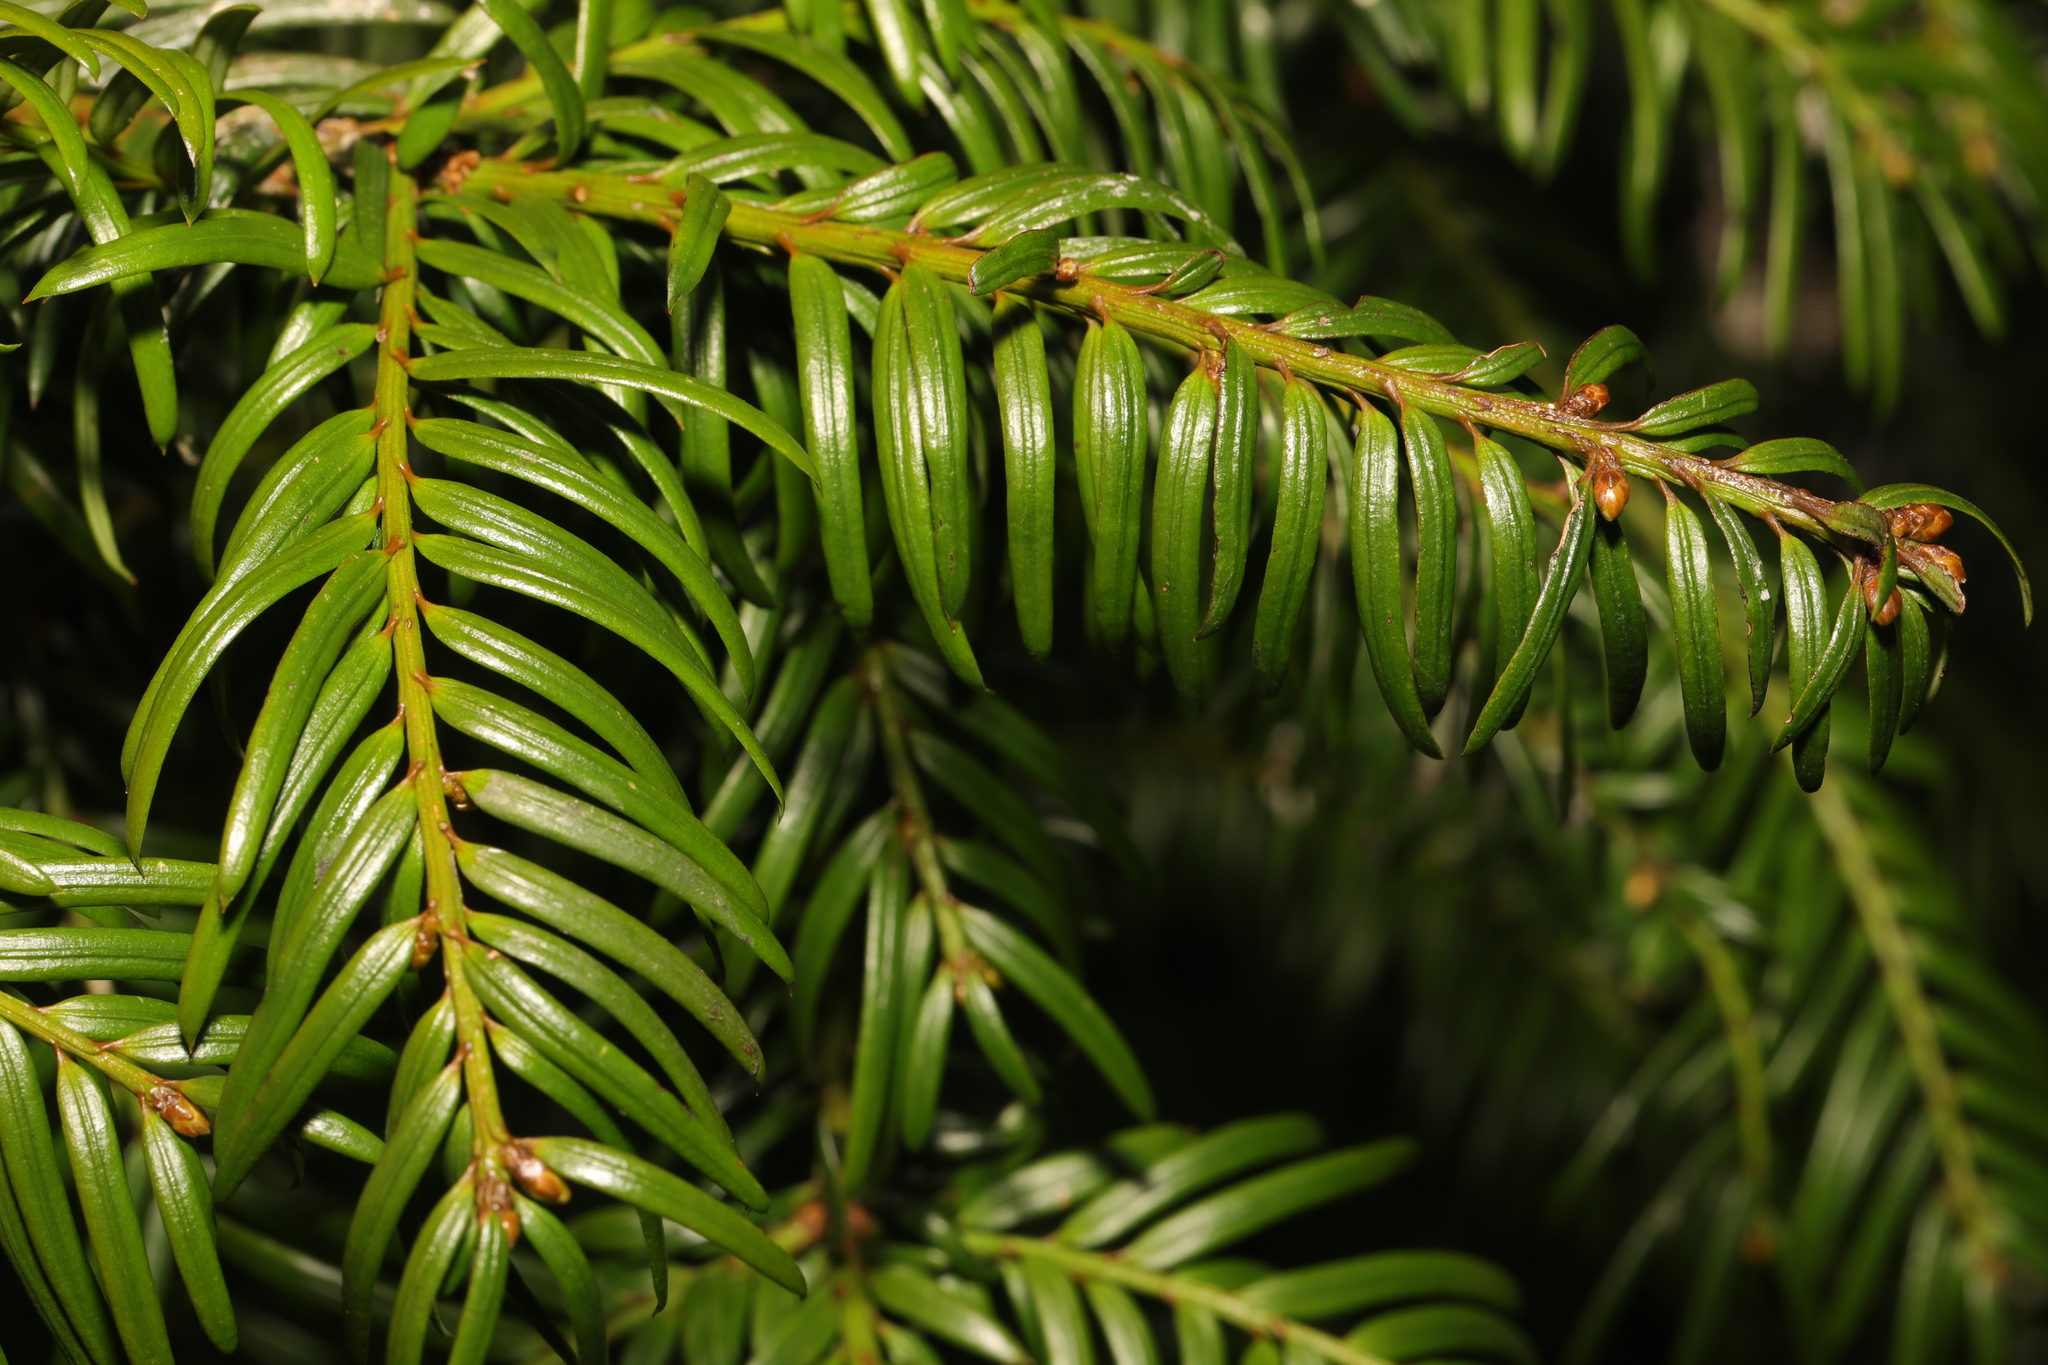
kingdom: Plantae
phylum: Tracheophyta
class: Pinopsida
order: Pinales
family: Taxaceae
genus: Taxus
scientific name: Taxus baccata
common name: Yew
